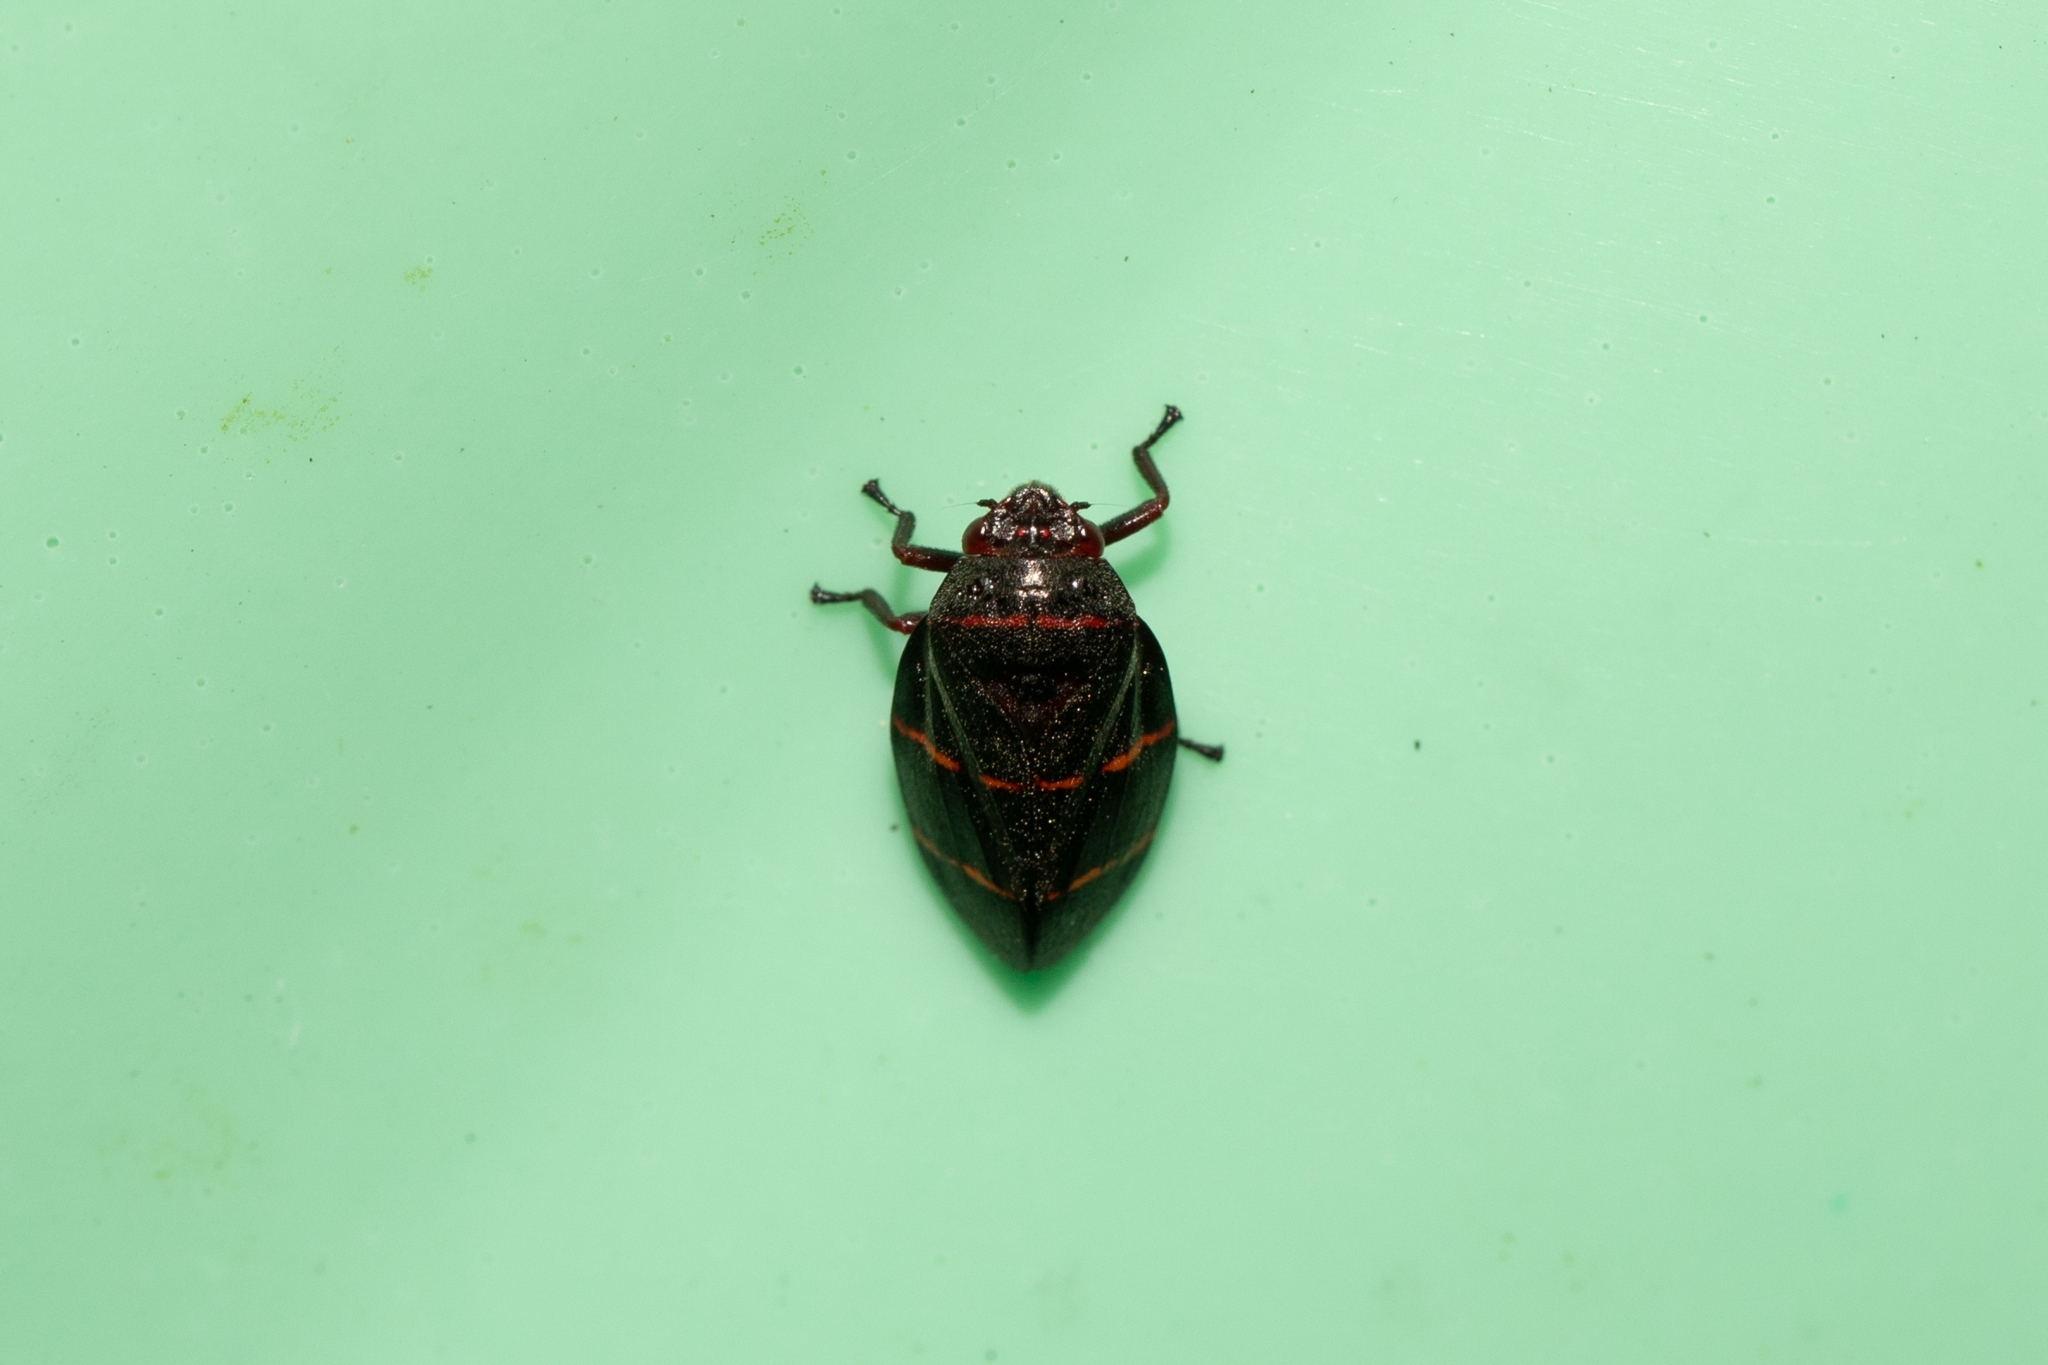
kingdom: Animalia
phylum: Arthropoda
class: Insecta
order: Hemiptera
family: Cercopidae
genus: Prosapia
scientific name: Prosapia bicincta
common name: Twolined spittlebug
